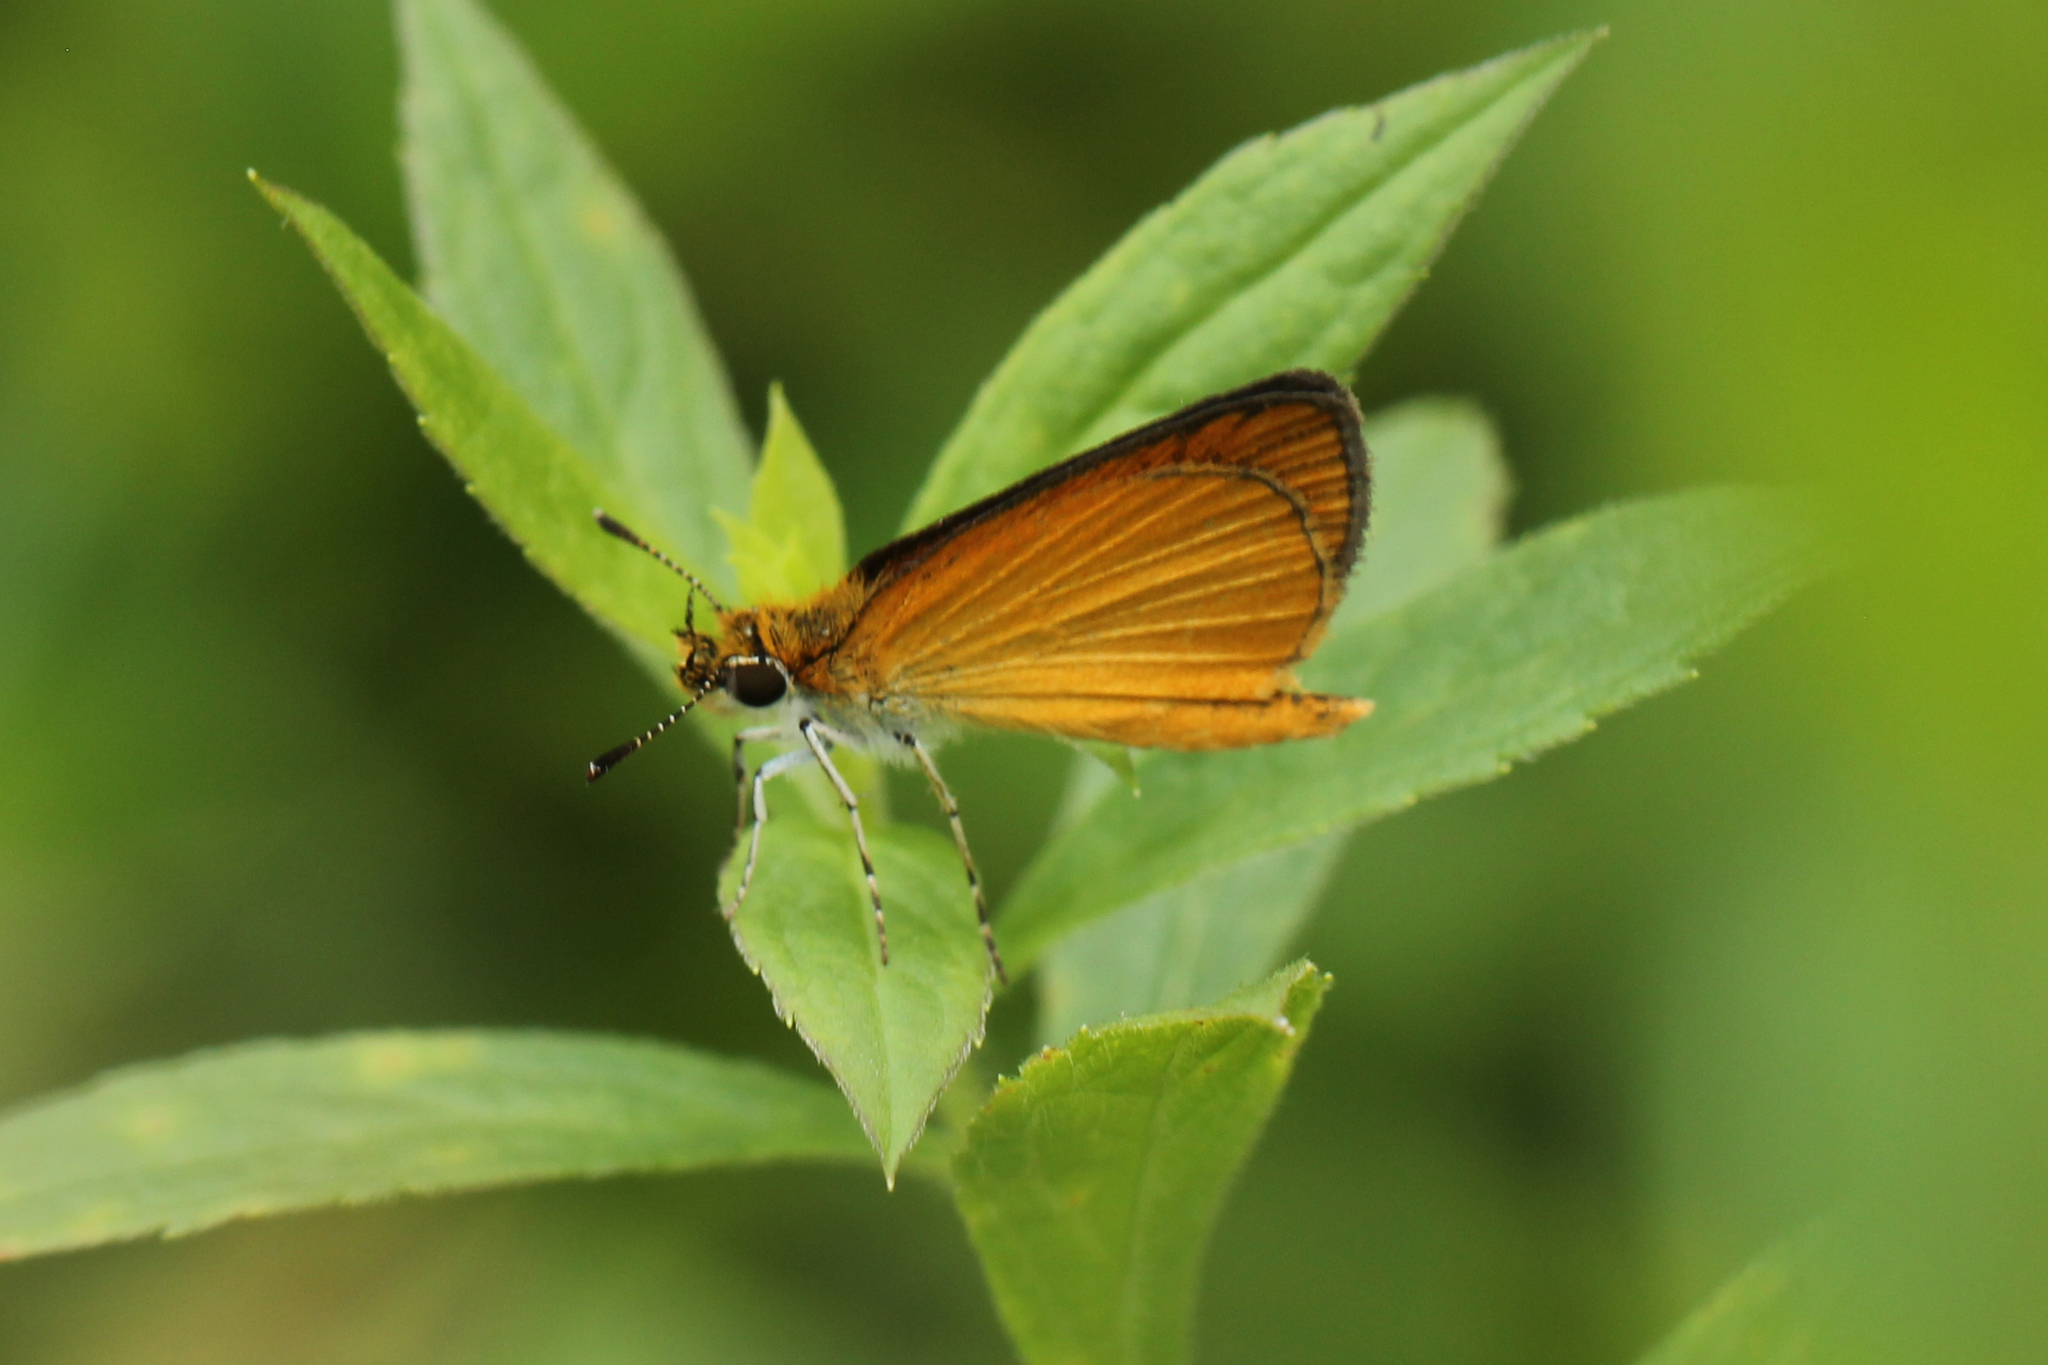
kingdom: Animalia
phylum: Arthropoda
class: Insecta
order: Lepidoptera
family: Hesperiidae
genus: Ancyloxypha
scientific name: Ancyloxypha numitor
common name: Least skipper
